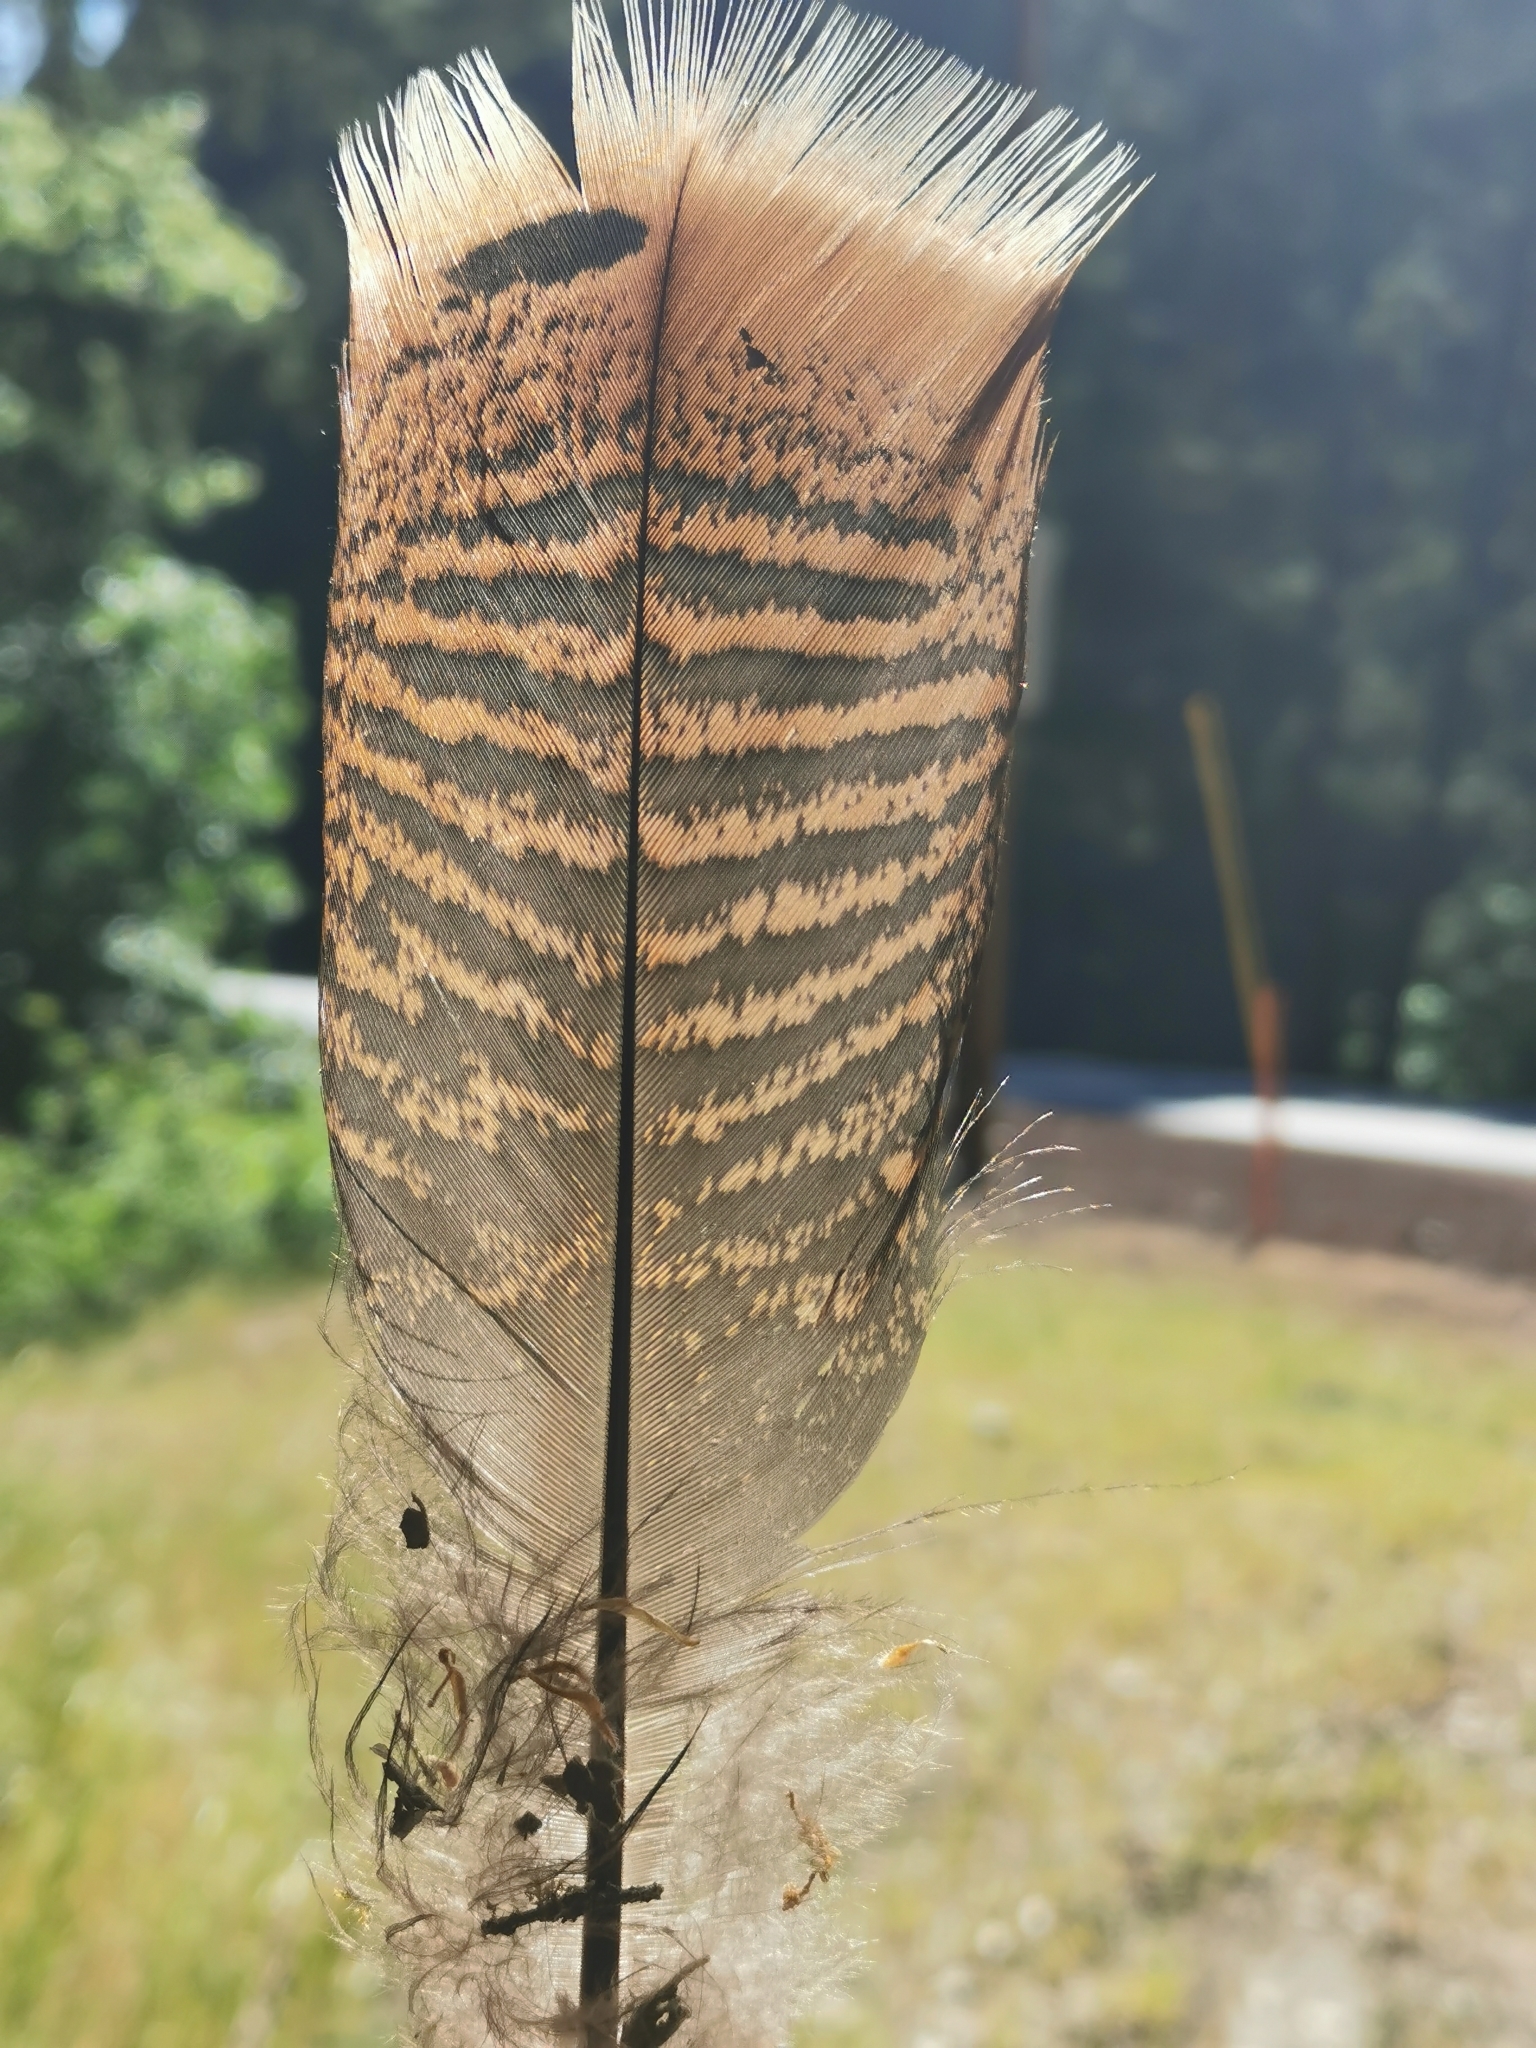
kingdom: Animalia
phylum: Chordata
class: Aves
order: Galliformes
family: Phasianidae
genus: Meleagris
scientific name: Meleagris gallopavo
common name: Wild turkey
